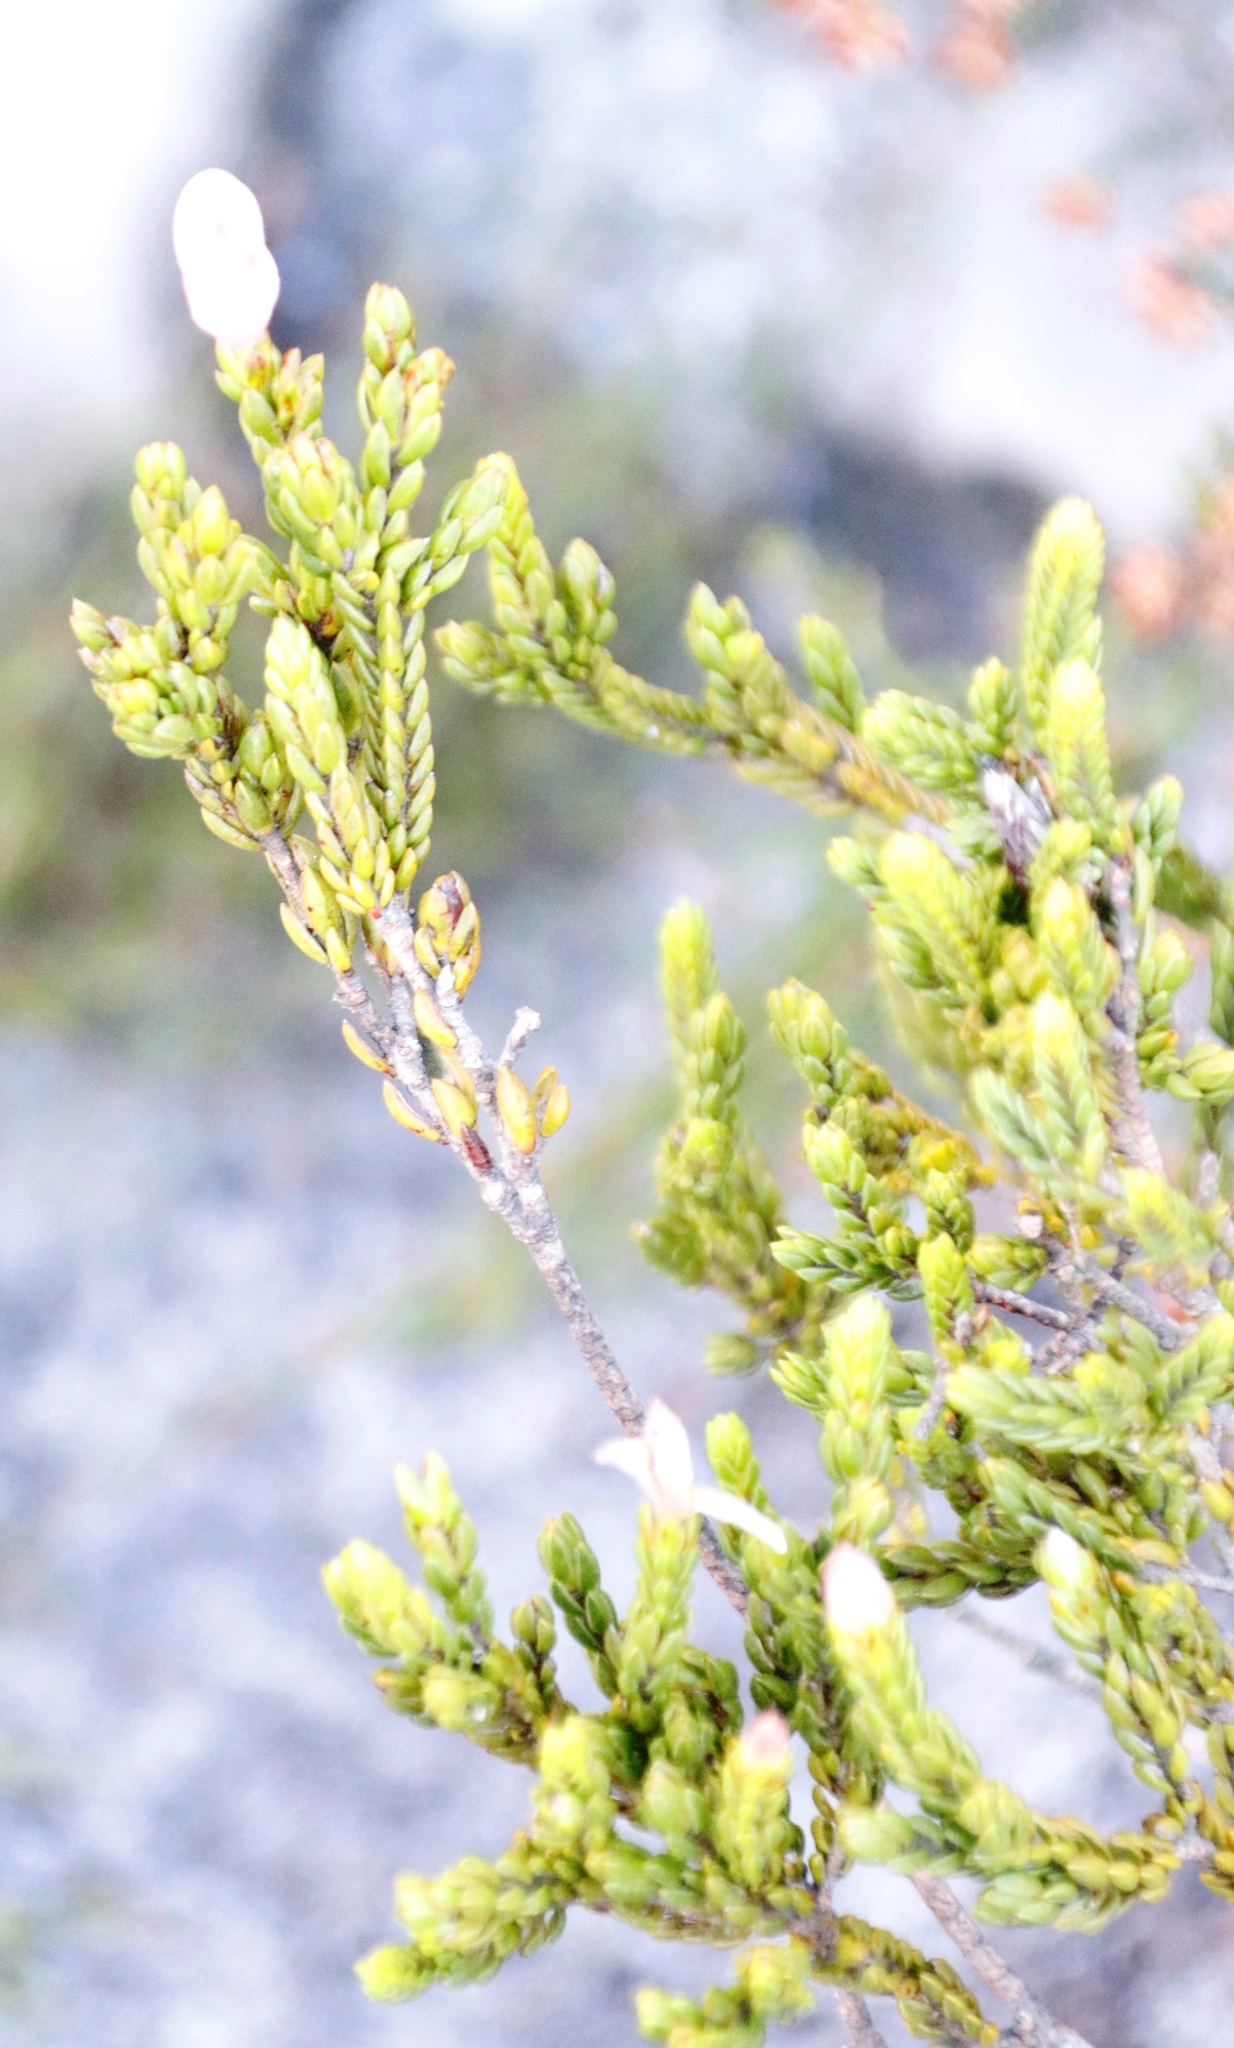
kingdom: Plantae
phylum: Tracheophyta
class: Magnoliopsida
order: Malvales
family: Thymelaeaceae
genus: Lachnaea
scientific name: Lachnaea grandiflora
